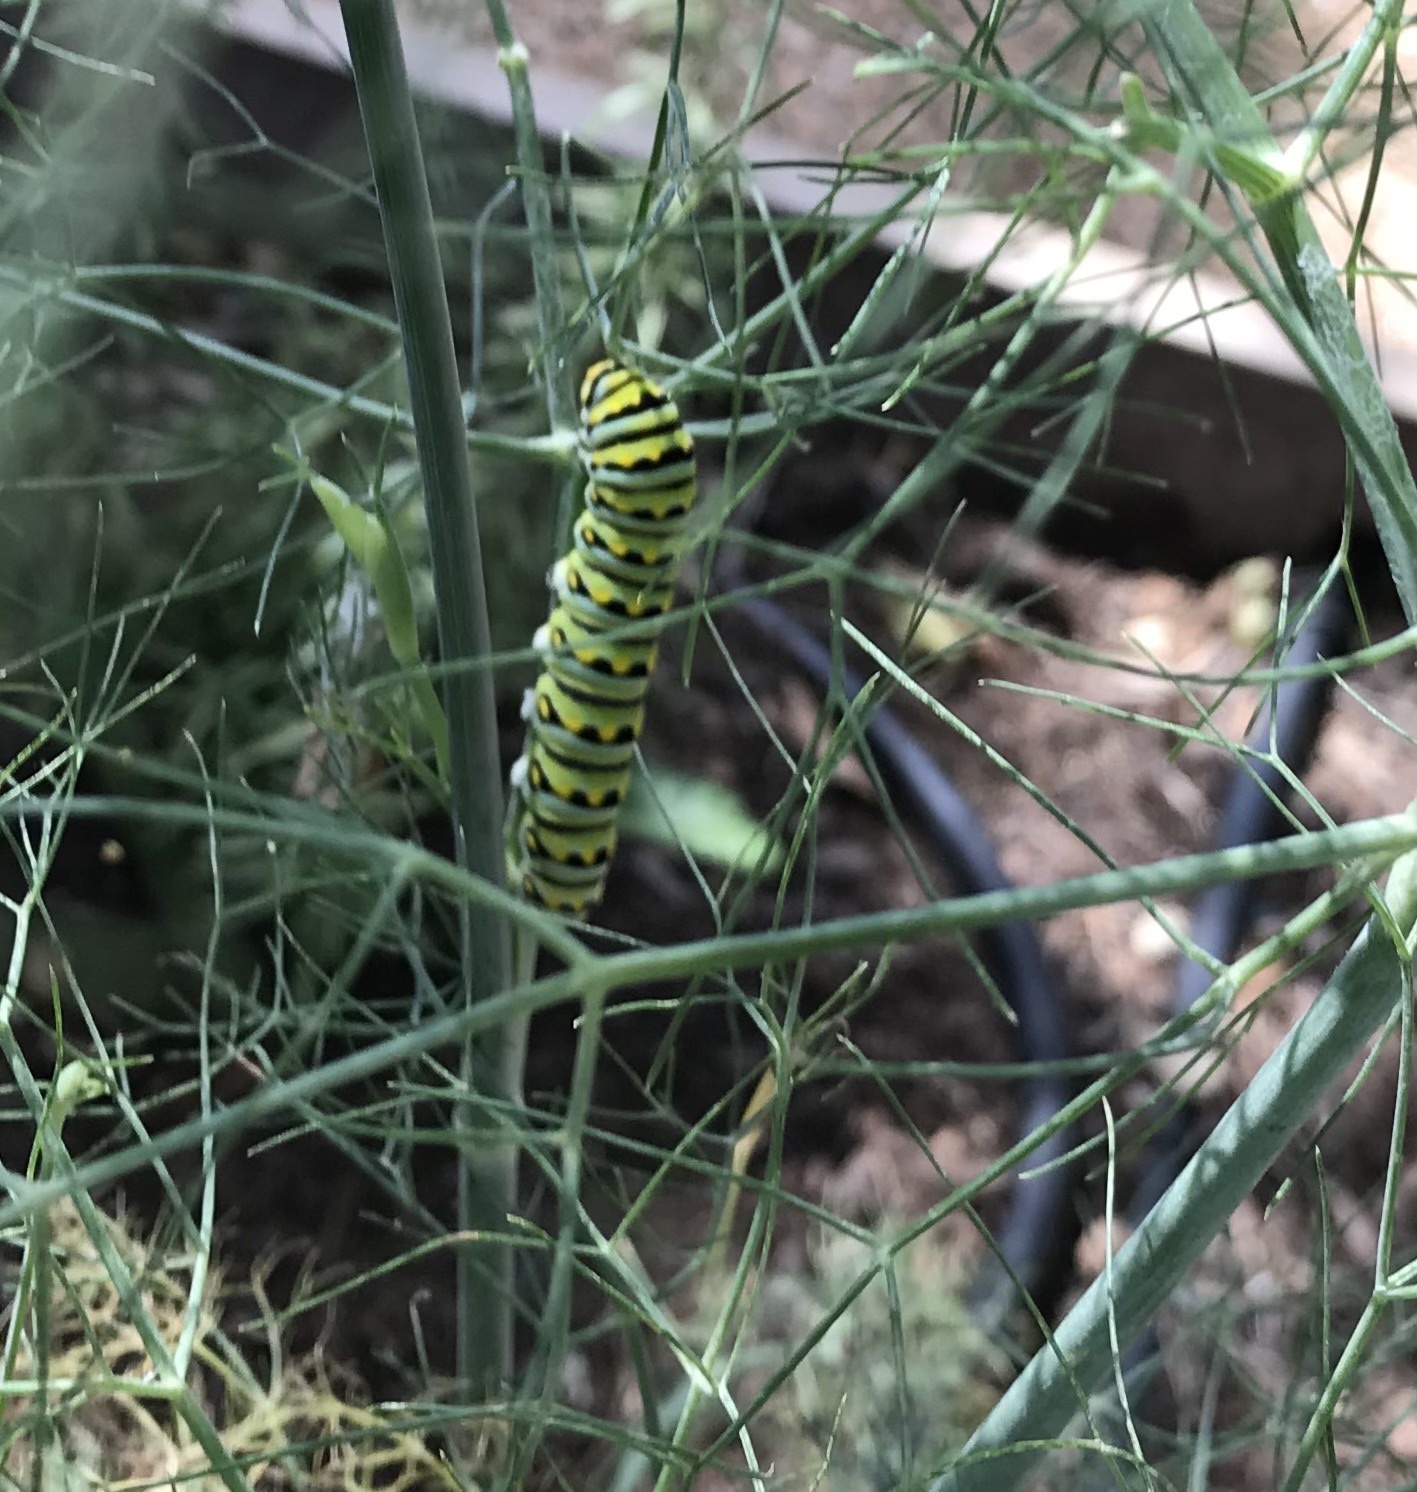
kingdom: Animalia
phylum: Arthropoda
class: Insecta
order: Lepidoptera
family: Papilionidae
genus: Papilio
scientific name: Papilio polyxenes
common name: Black swallowtail
